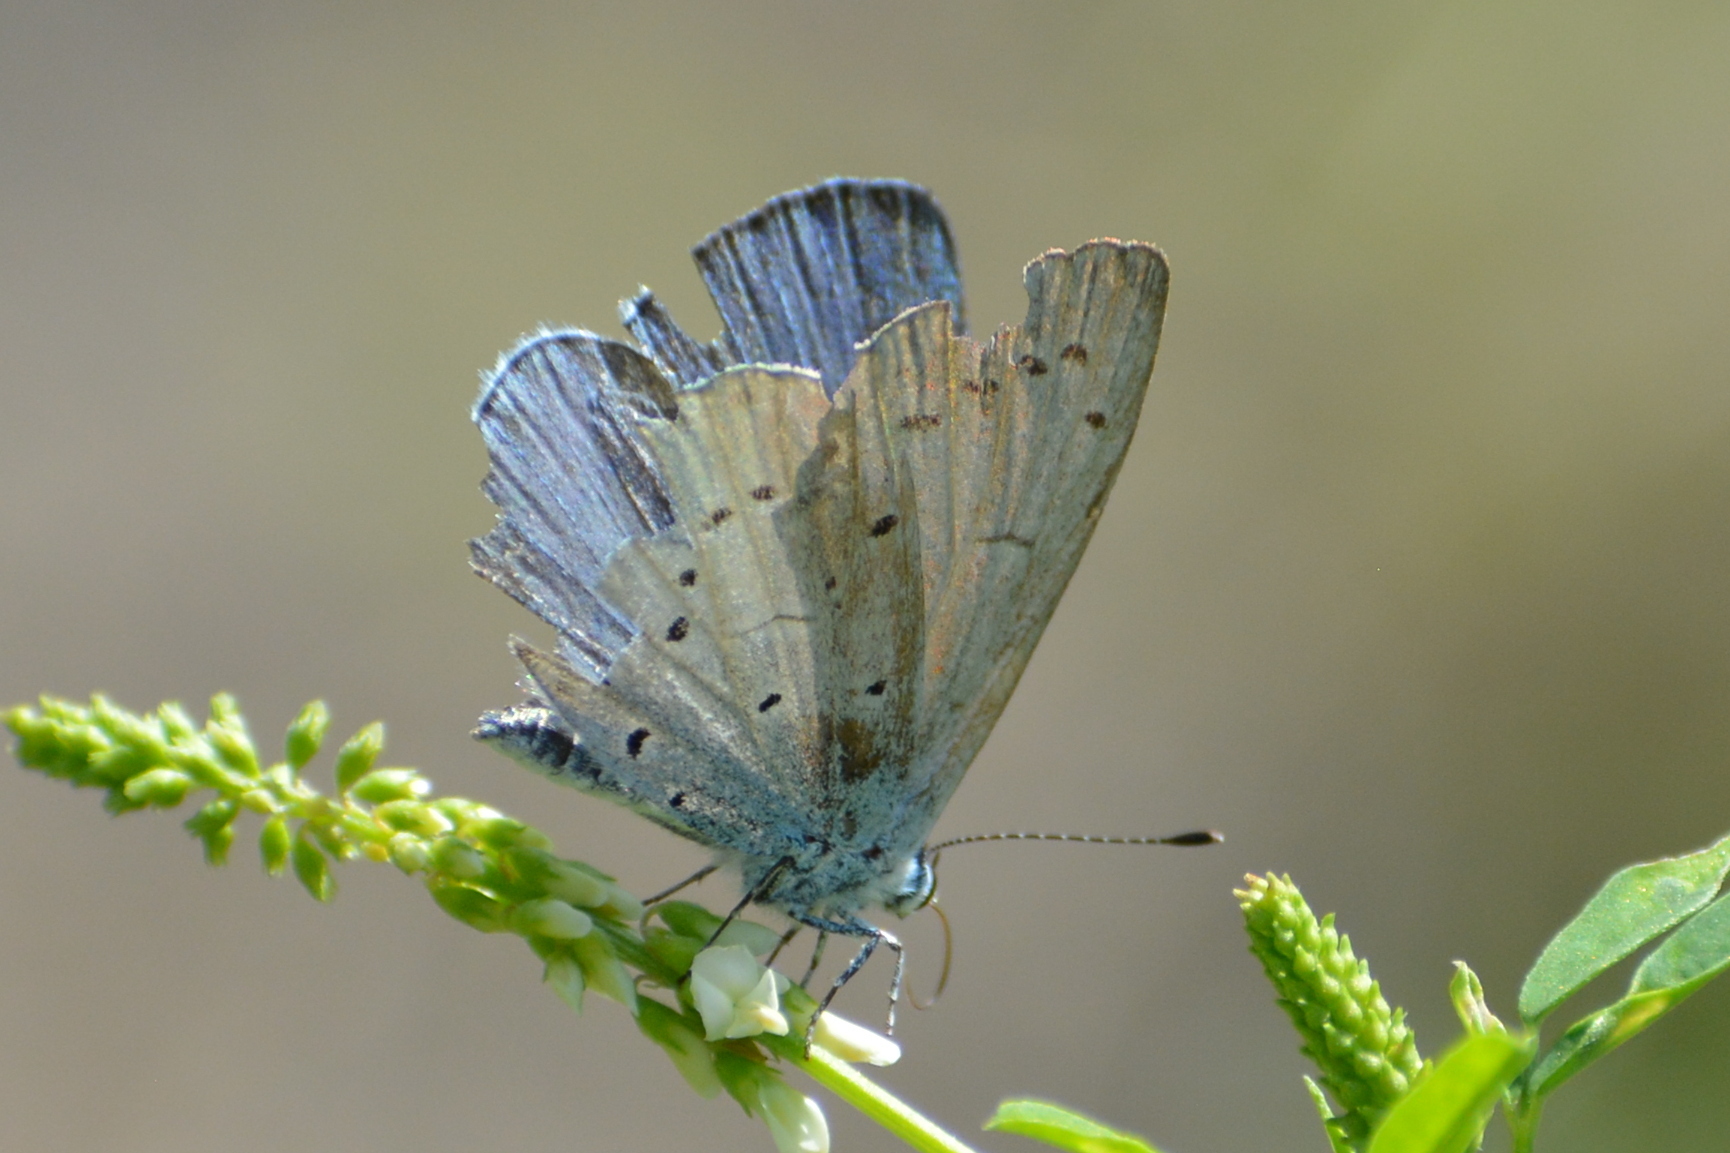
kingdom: Animalia
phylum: Arthropoda
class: Insecta
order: Lepidoptera
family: Lycaenidae
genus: Celastrina
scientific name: Celastrina argiolus
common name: Holly blue
